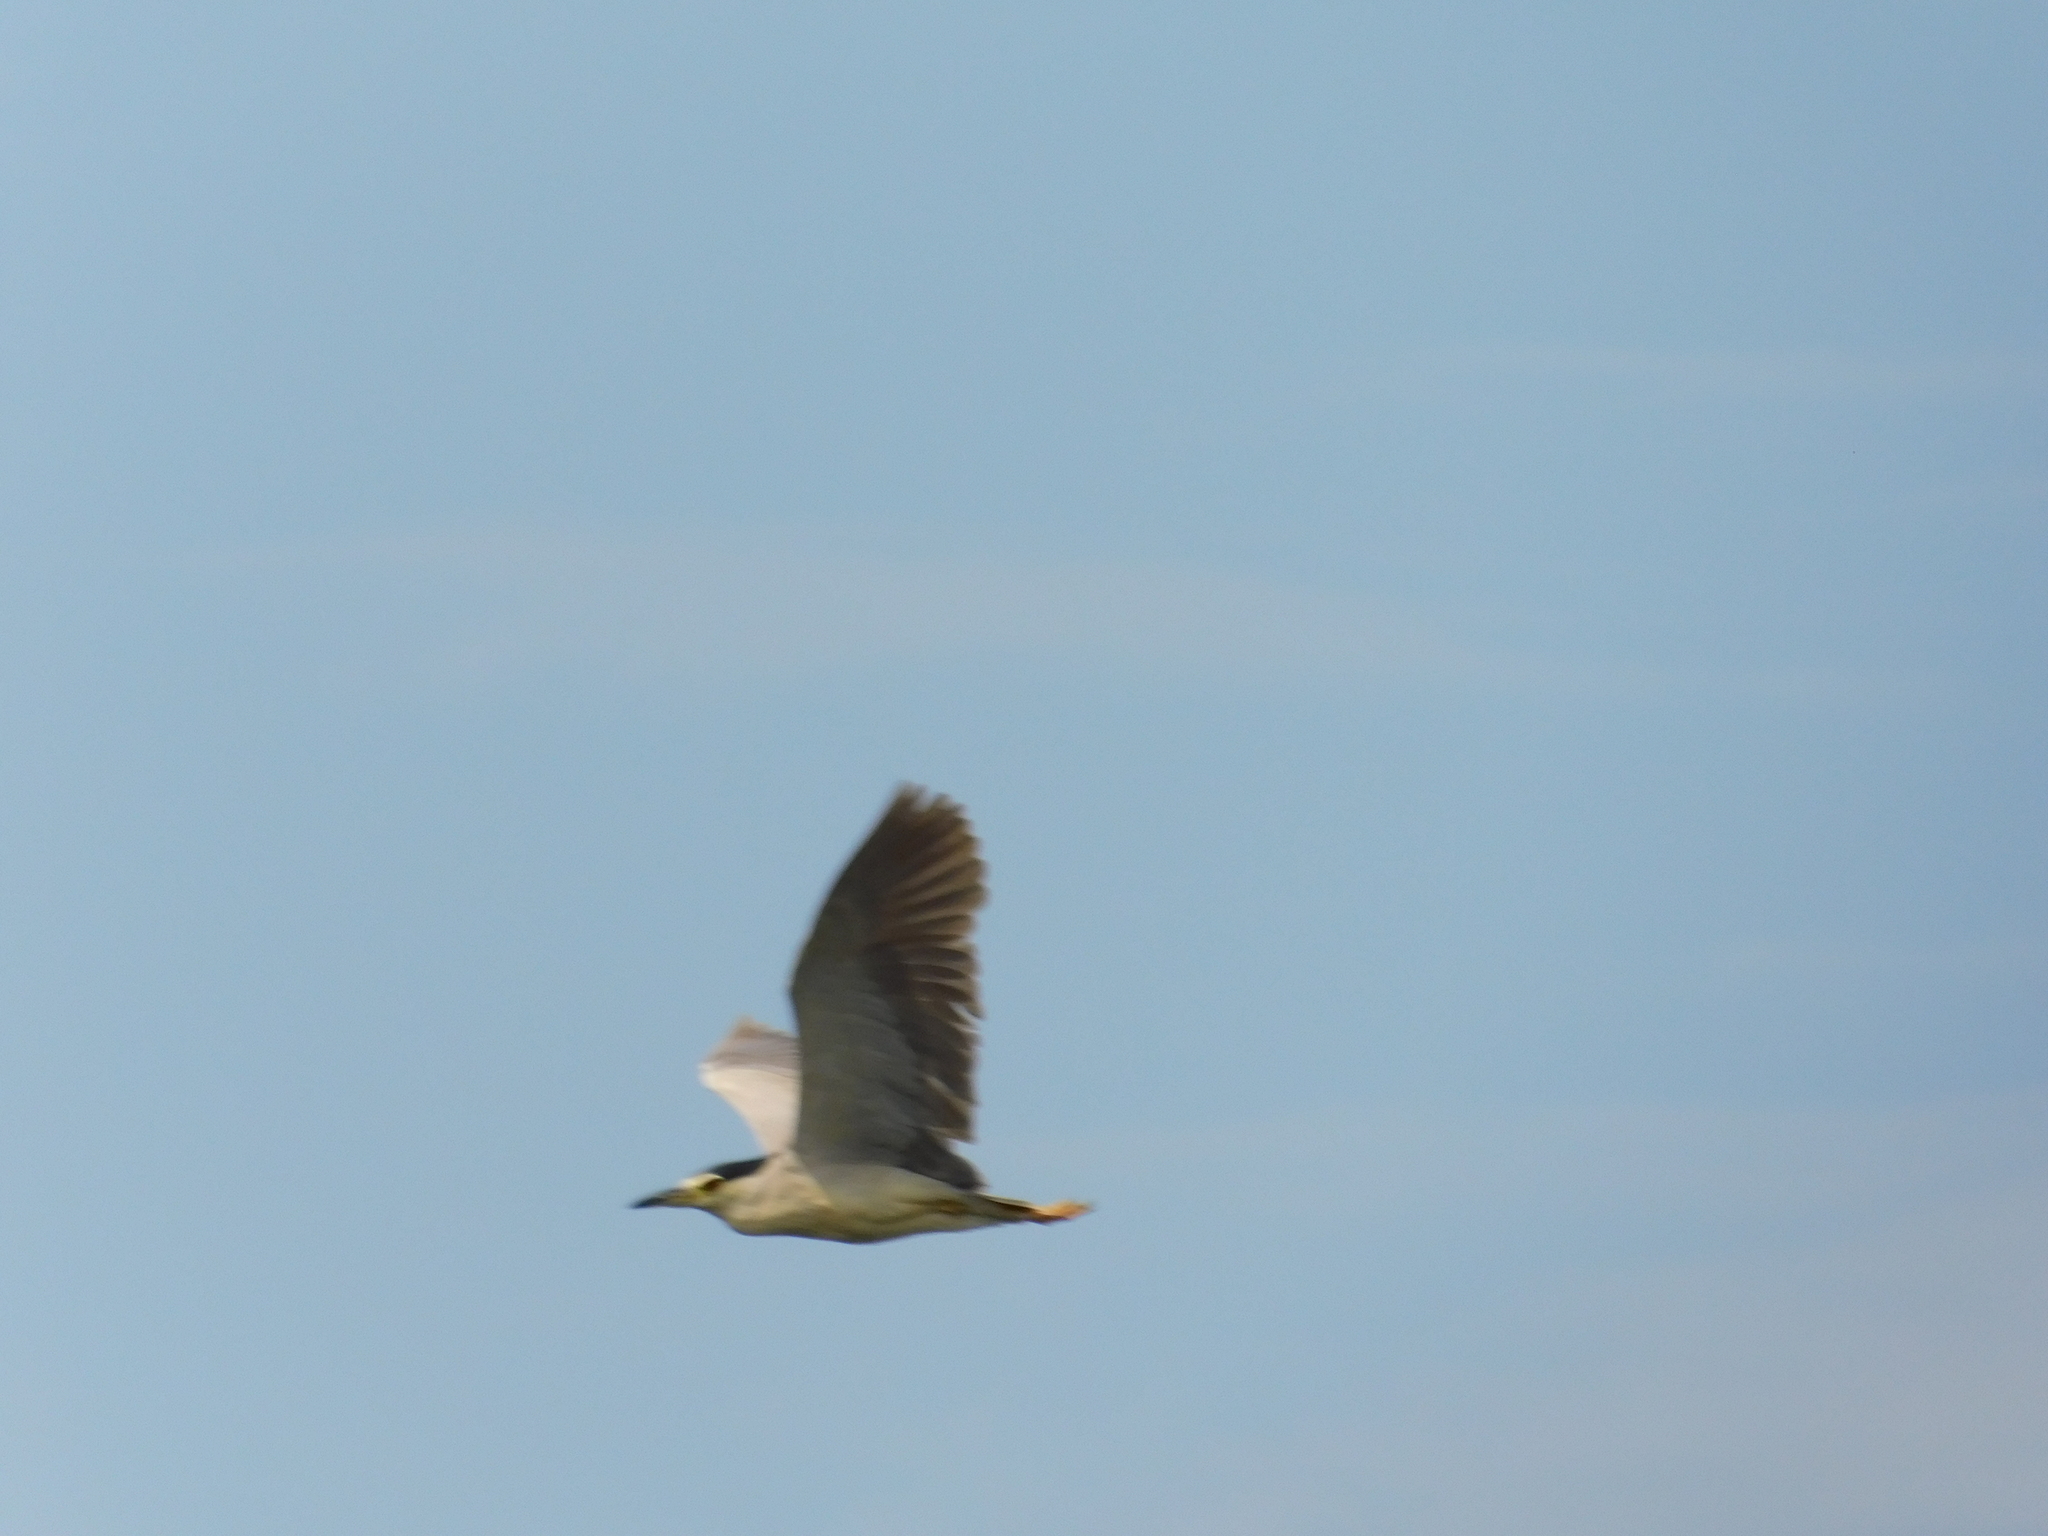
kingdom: Animalia
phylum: Chordata
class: Aves
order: Pelecaniformes
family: Ardeidae
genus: Nycticorax
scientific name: Nycticorax nycticorax
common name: Black-crowned night heron
